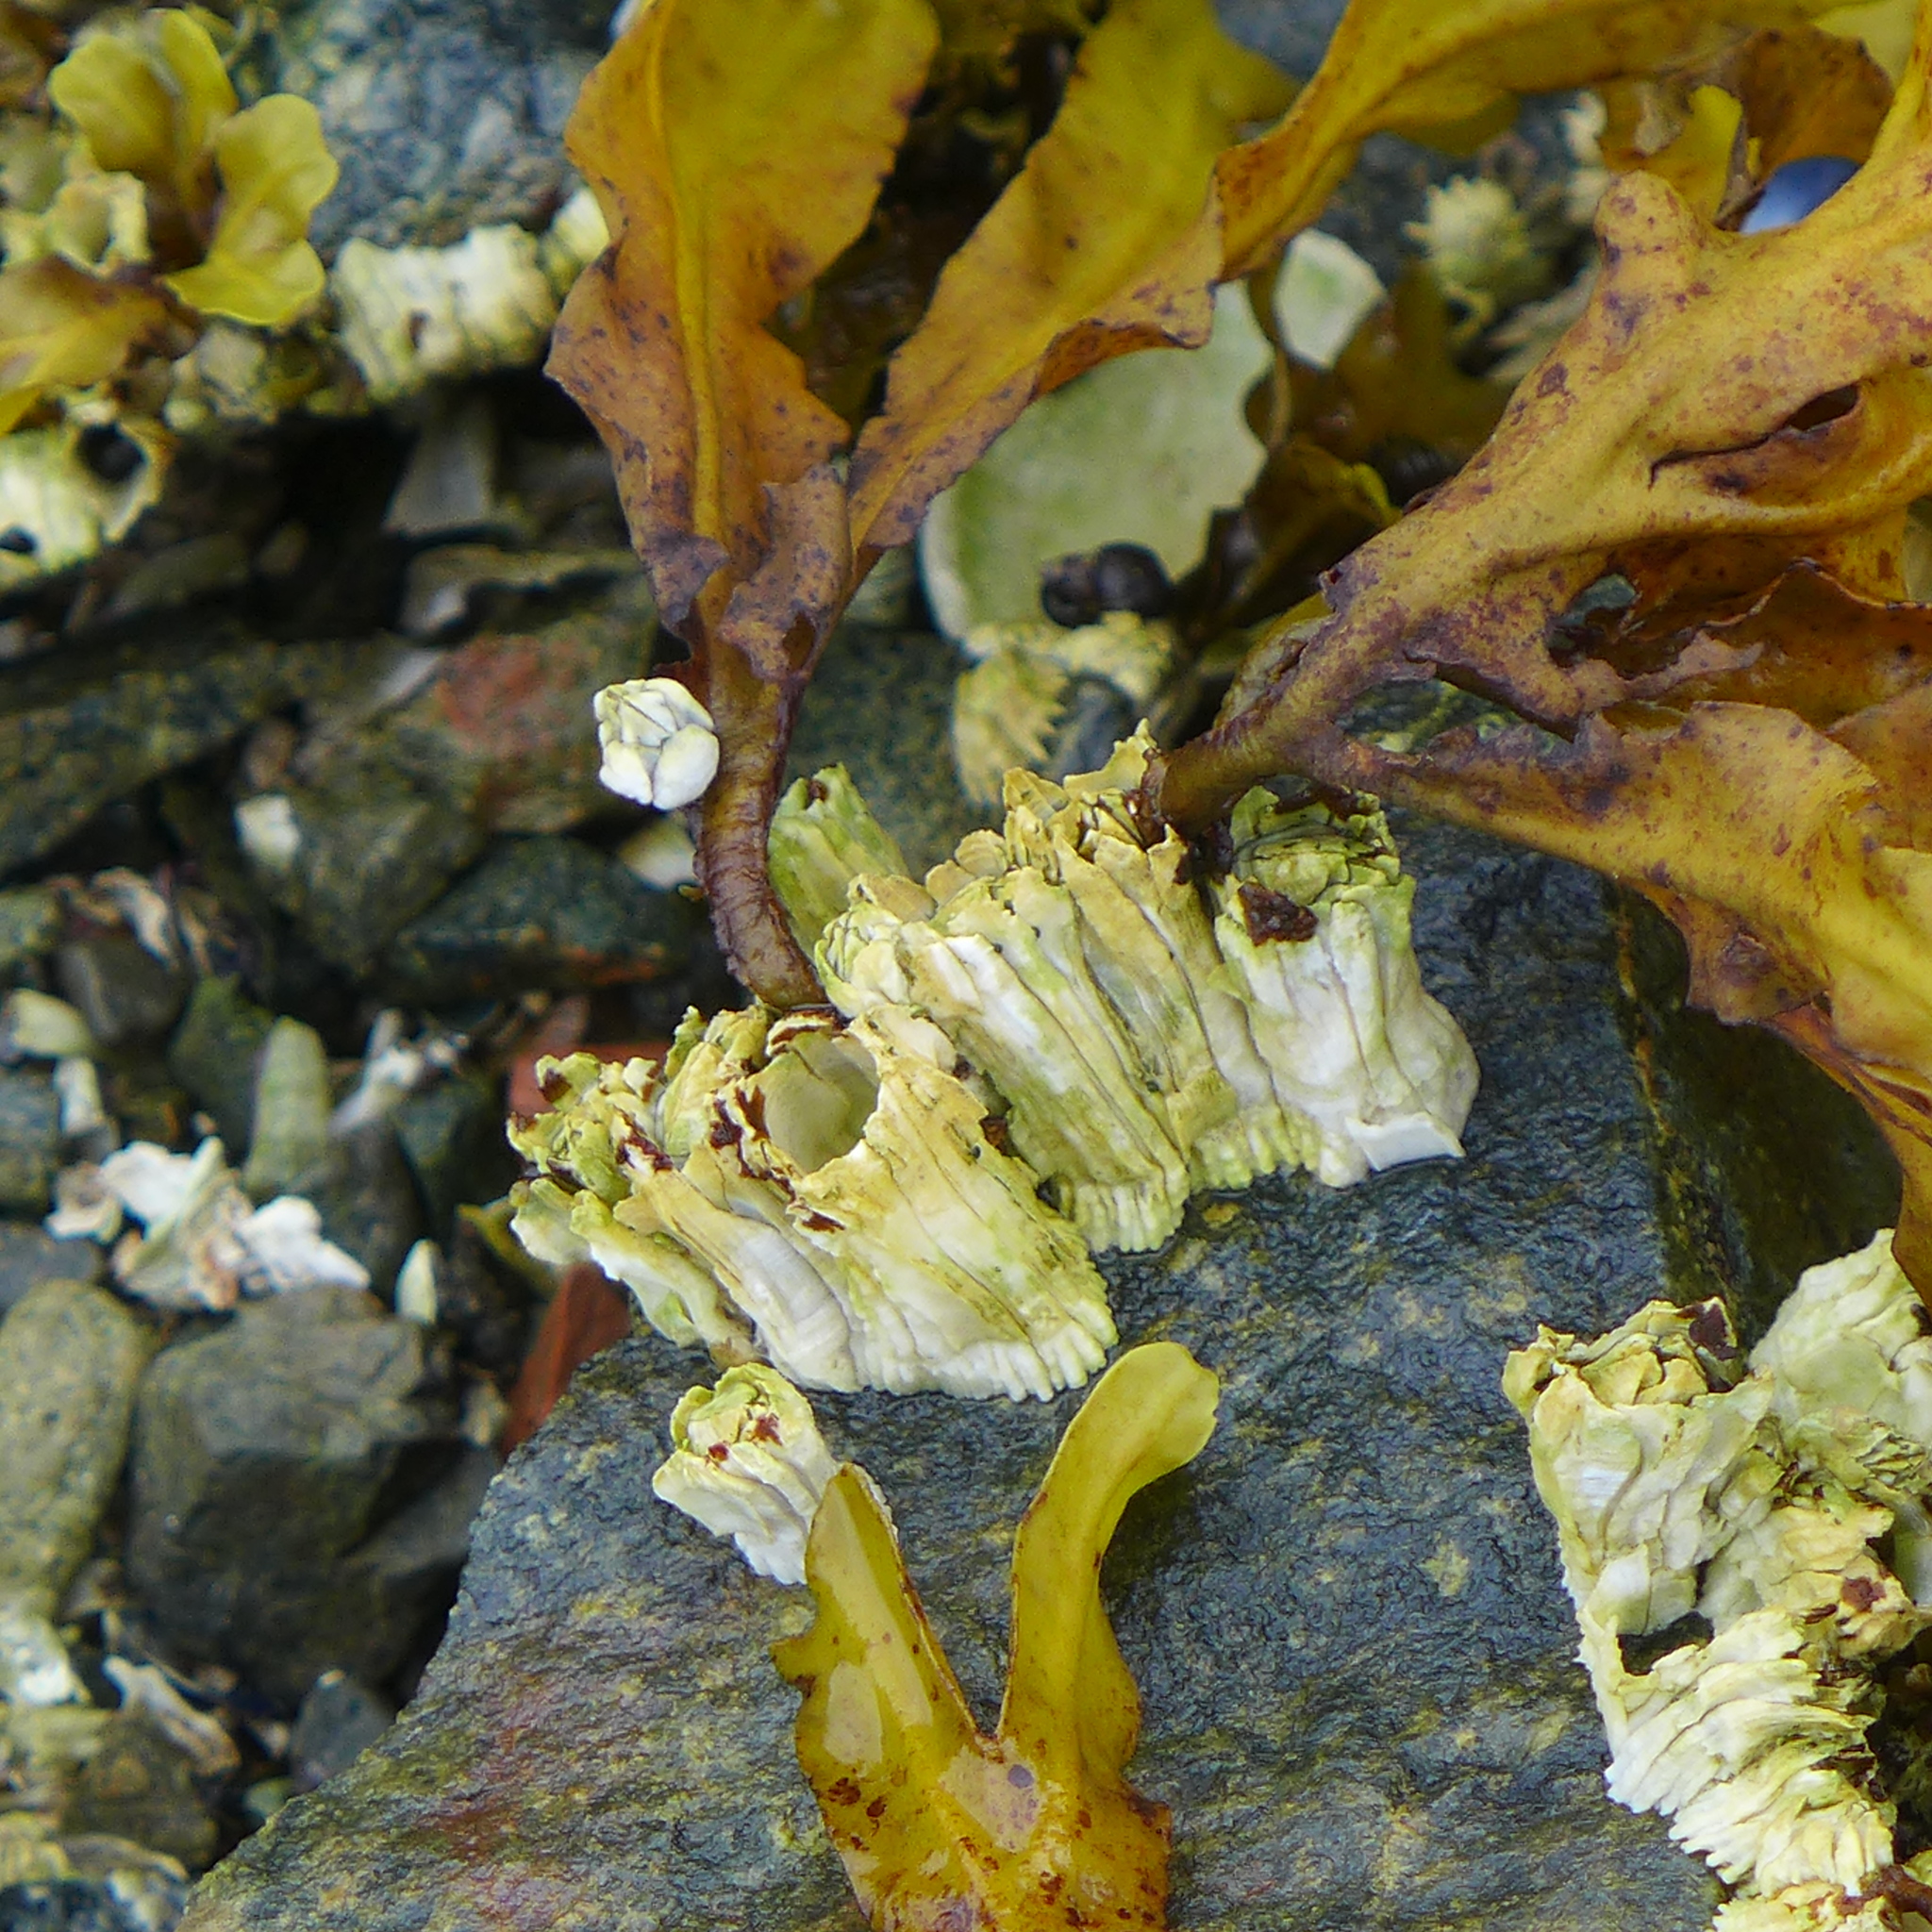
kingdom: Animalia
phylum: Arthropoda
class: Maxillopoda
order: Sessilia
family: Balanidae
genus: Balanus
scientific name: Balanus glandula
